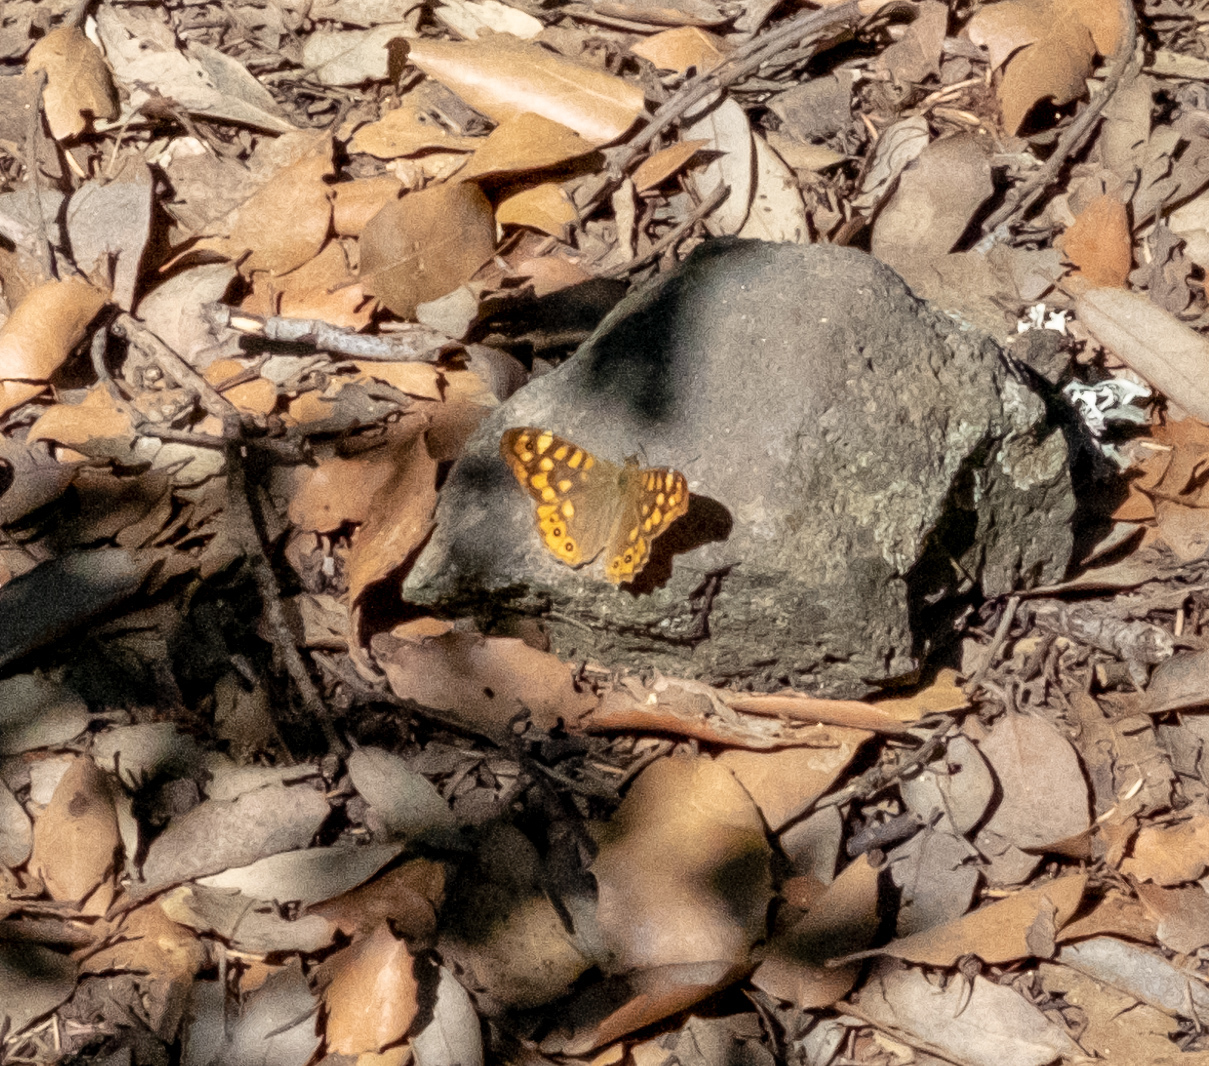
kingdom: Animalia
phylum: Arthropoda
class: Insecta
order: Lepidoptera
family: Nymphalidae
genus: Pararge
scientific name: Pararge aegeria
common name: Speckled wood
